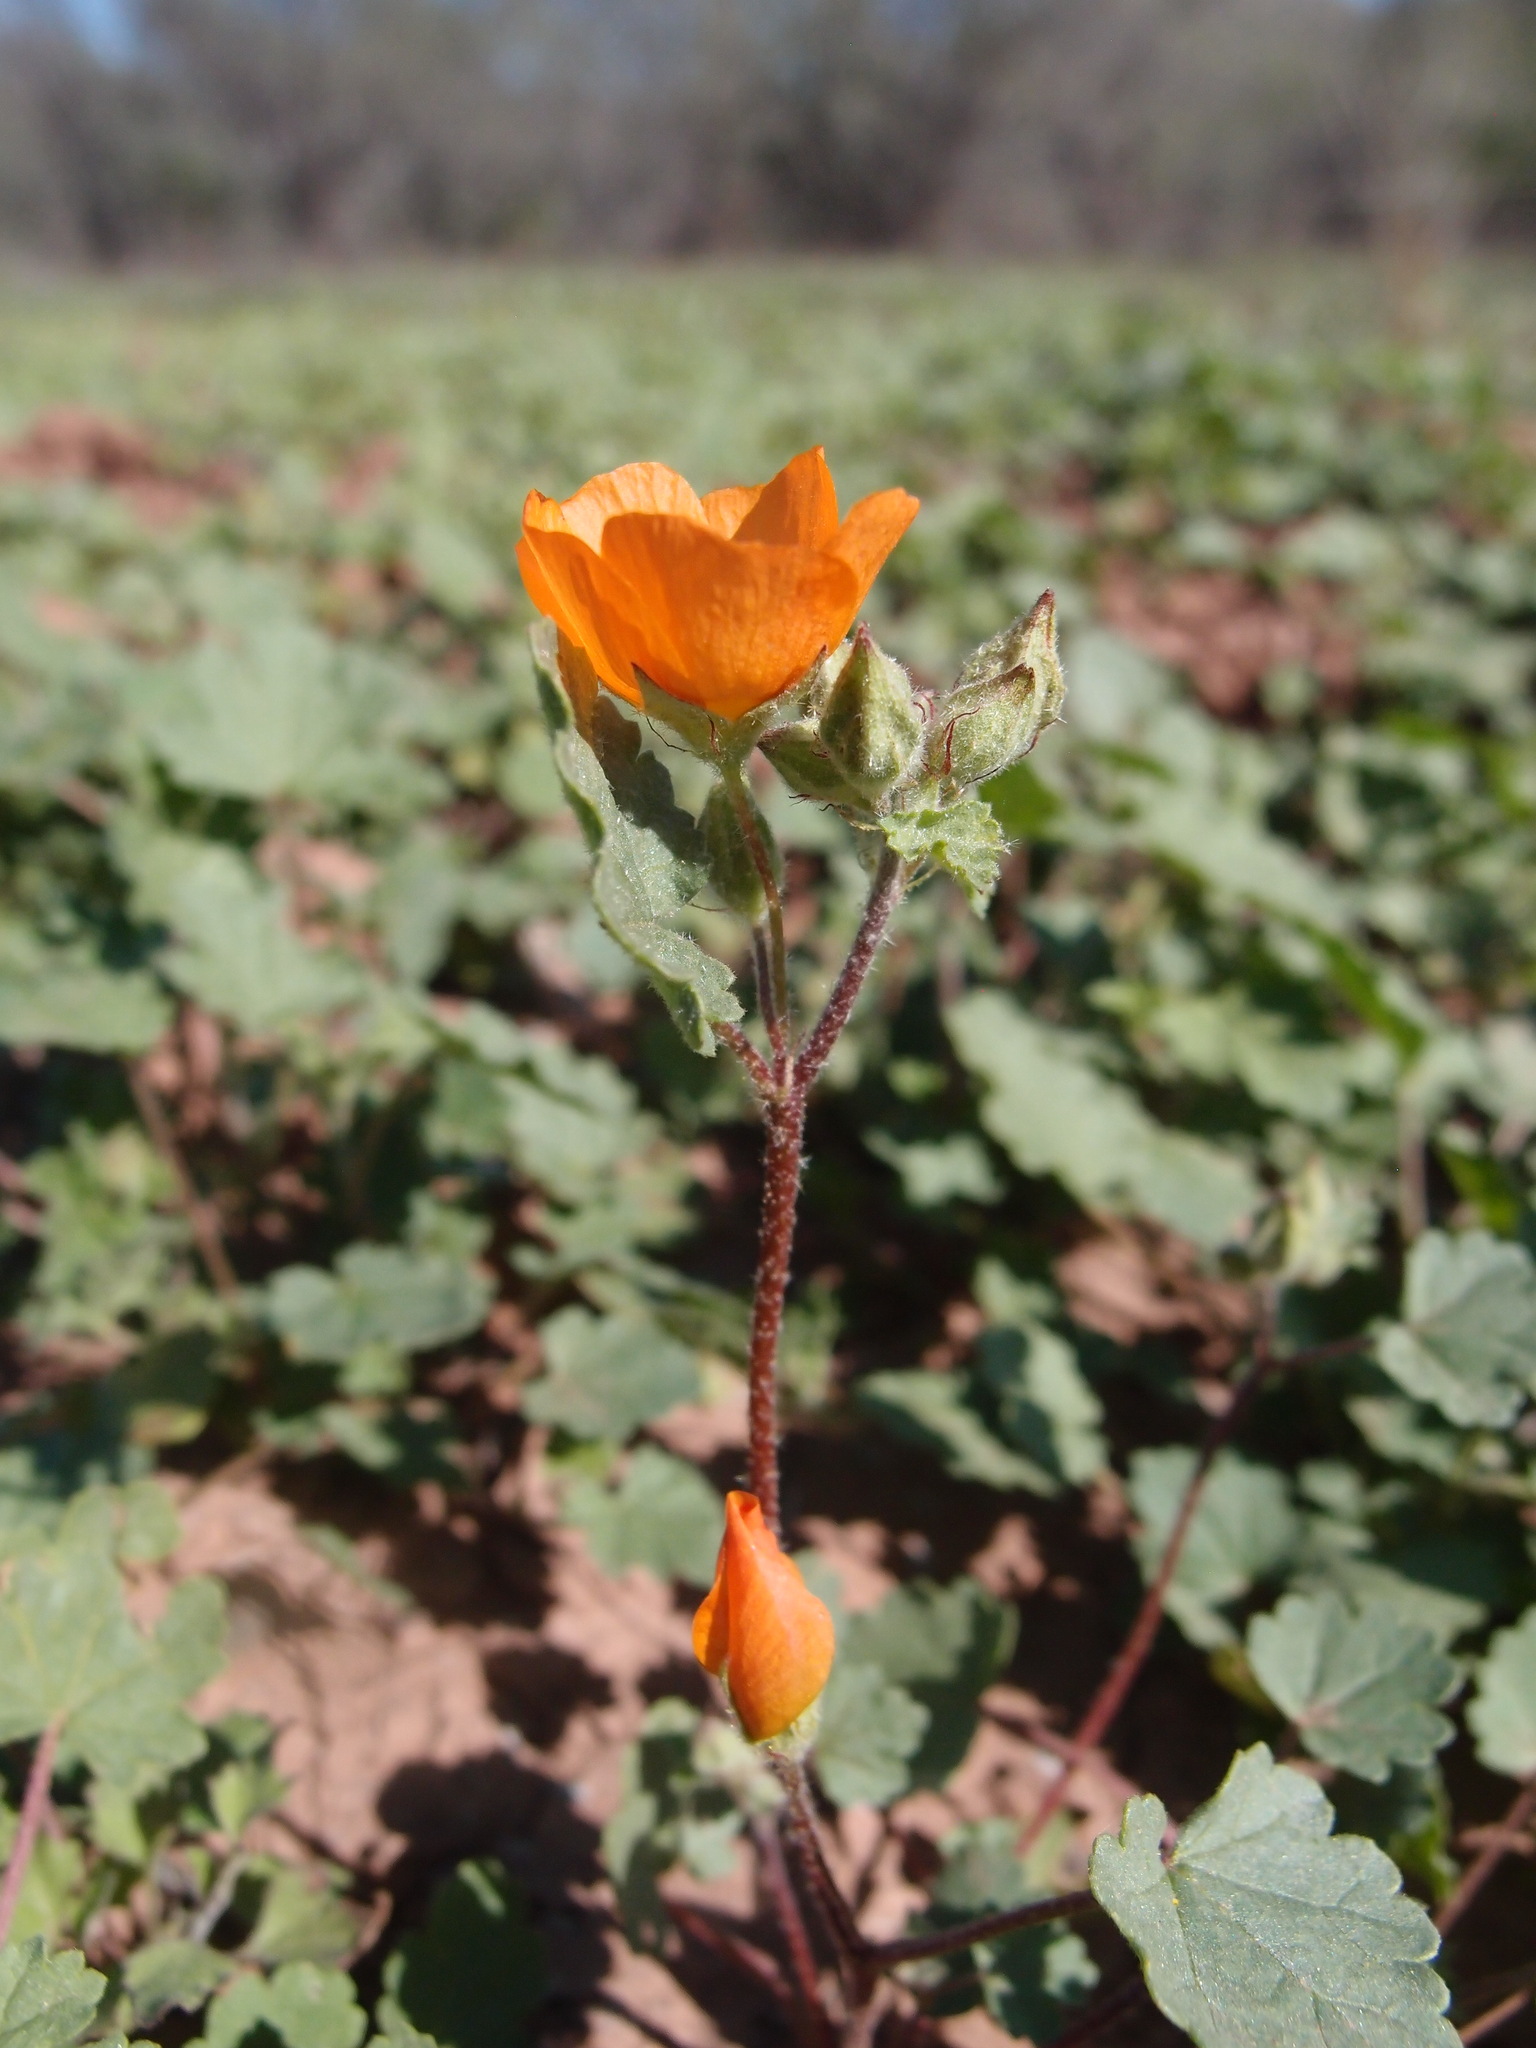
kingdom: Plantae
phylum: Tracheophyta
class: Magnoliopsida
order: Malvales
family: Malvaceae
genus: Sphaeralcea
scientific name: Sphaeralcea coulteri
